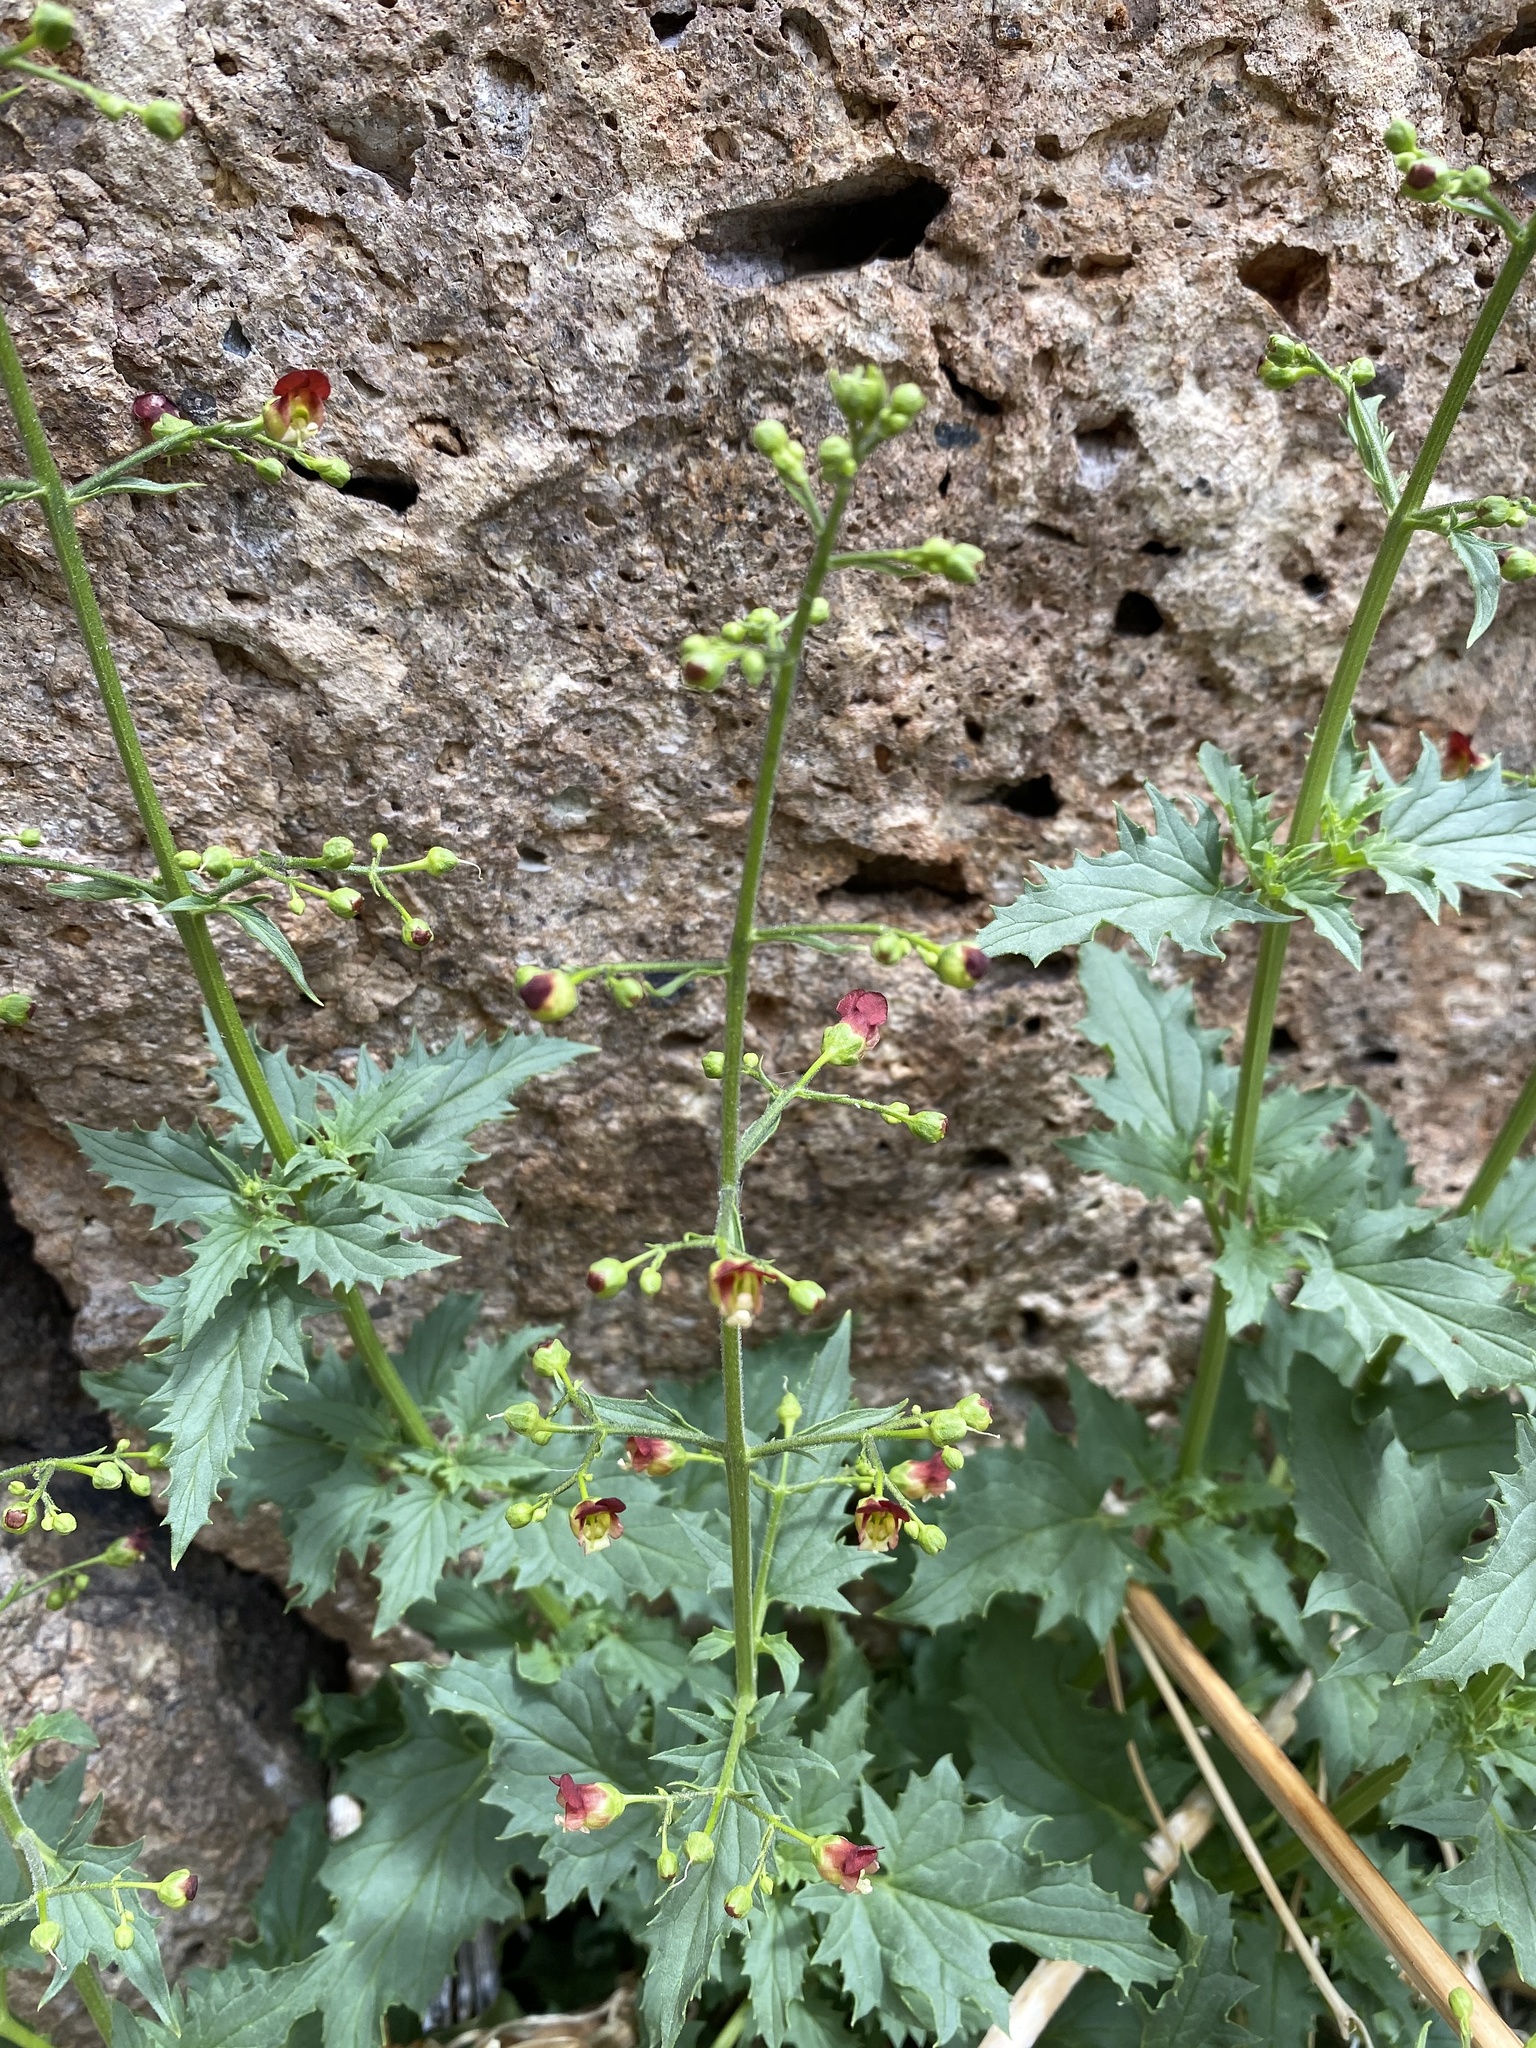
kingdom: Plantae
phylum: Tracheophyta
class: Magnoliopsida
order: Lamiales
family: Scrophulariaceae
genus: Scrophularia
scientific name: Scrophularia desertorum
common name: Desert figwort
